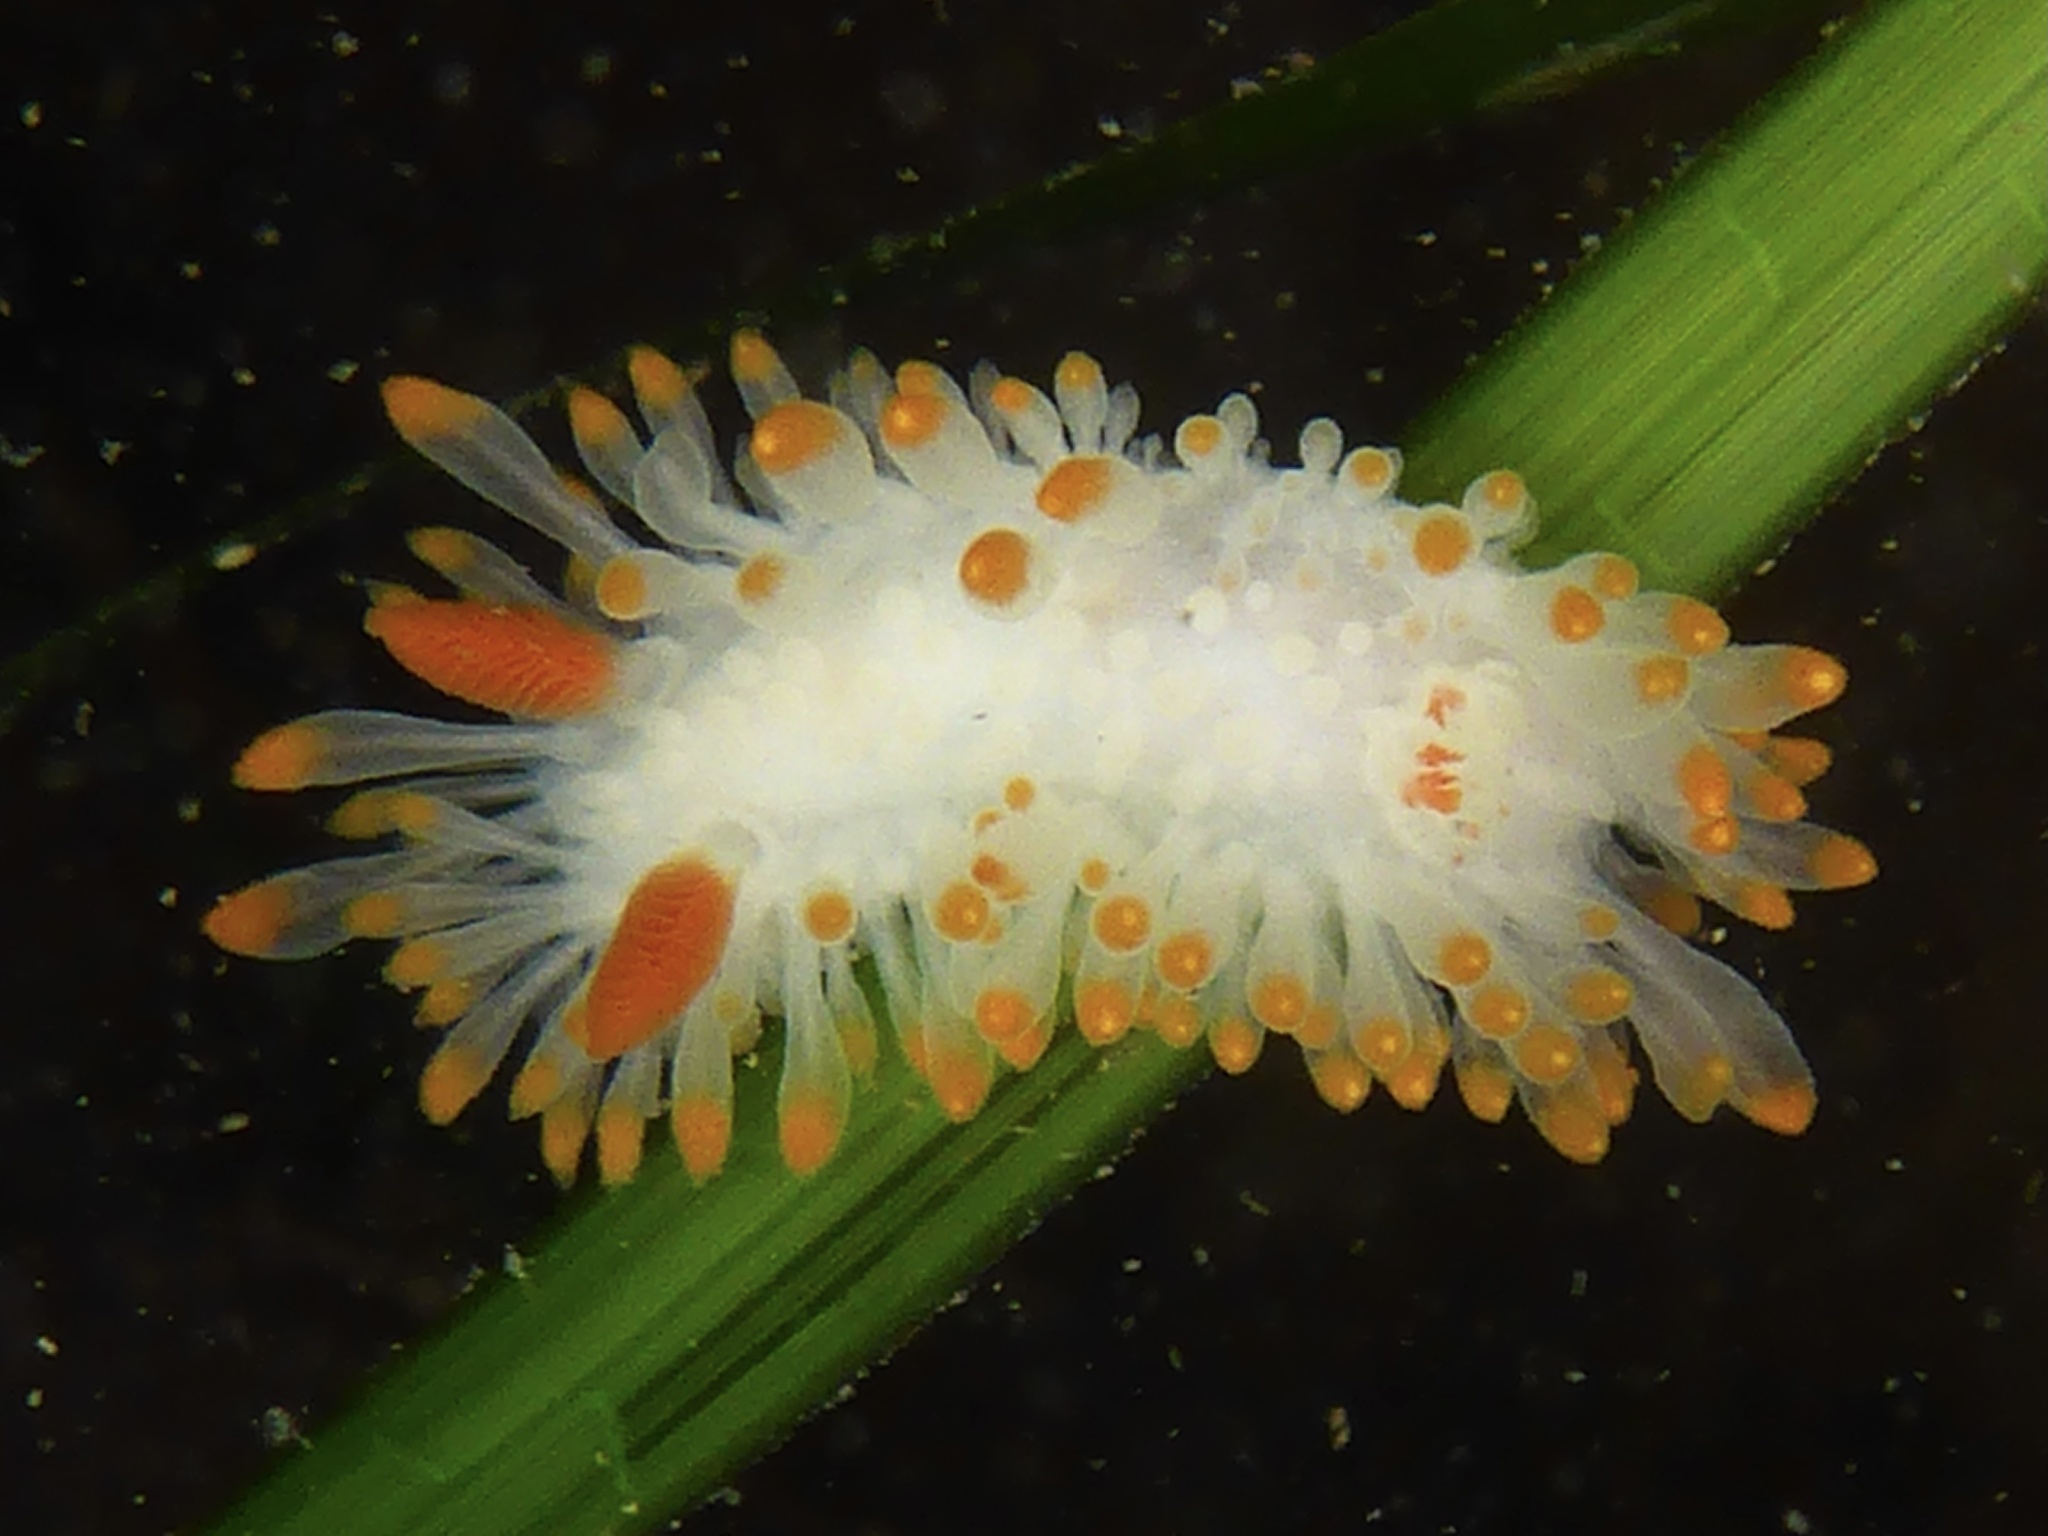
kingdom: Animalia
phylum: Mollusca
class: Gastropoda
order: Nudibranchia
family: Polyceridae
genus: Limacia
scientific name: Limacia cockerelli
